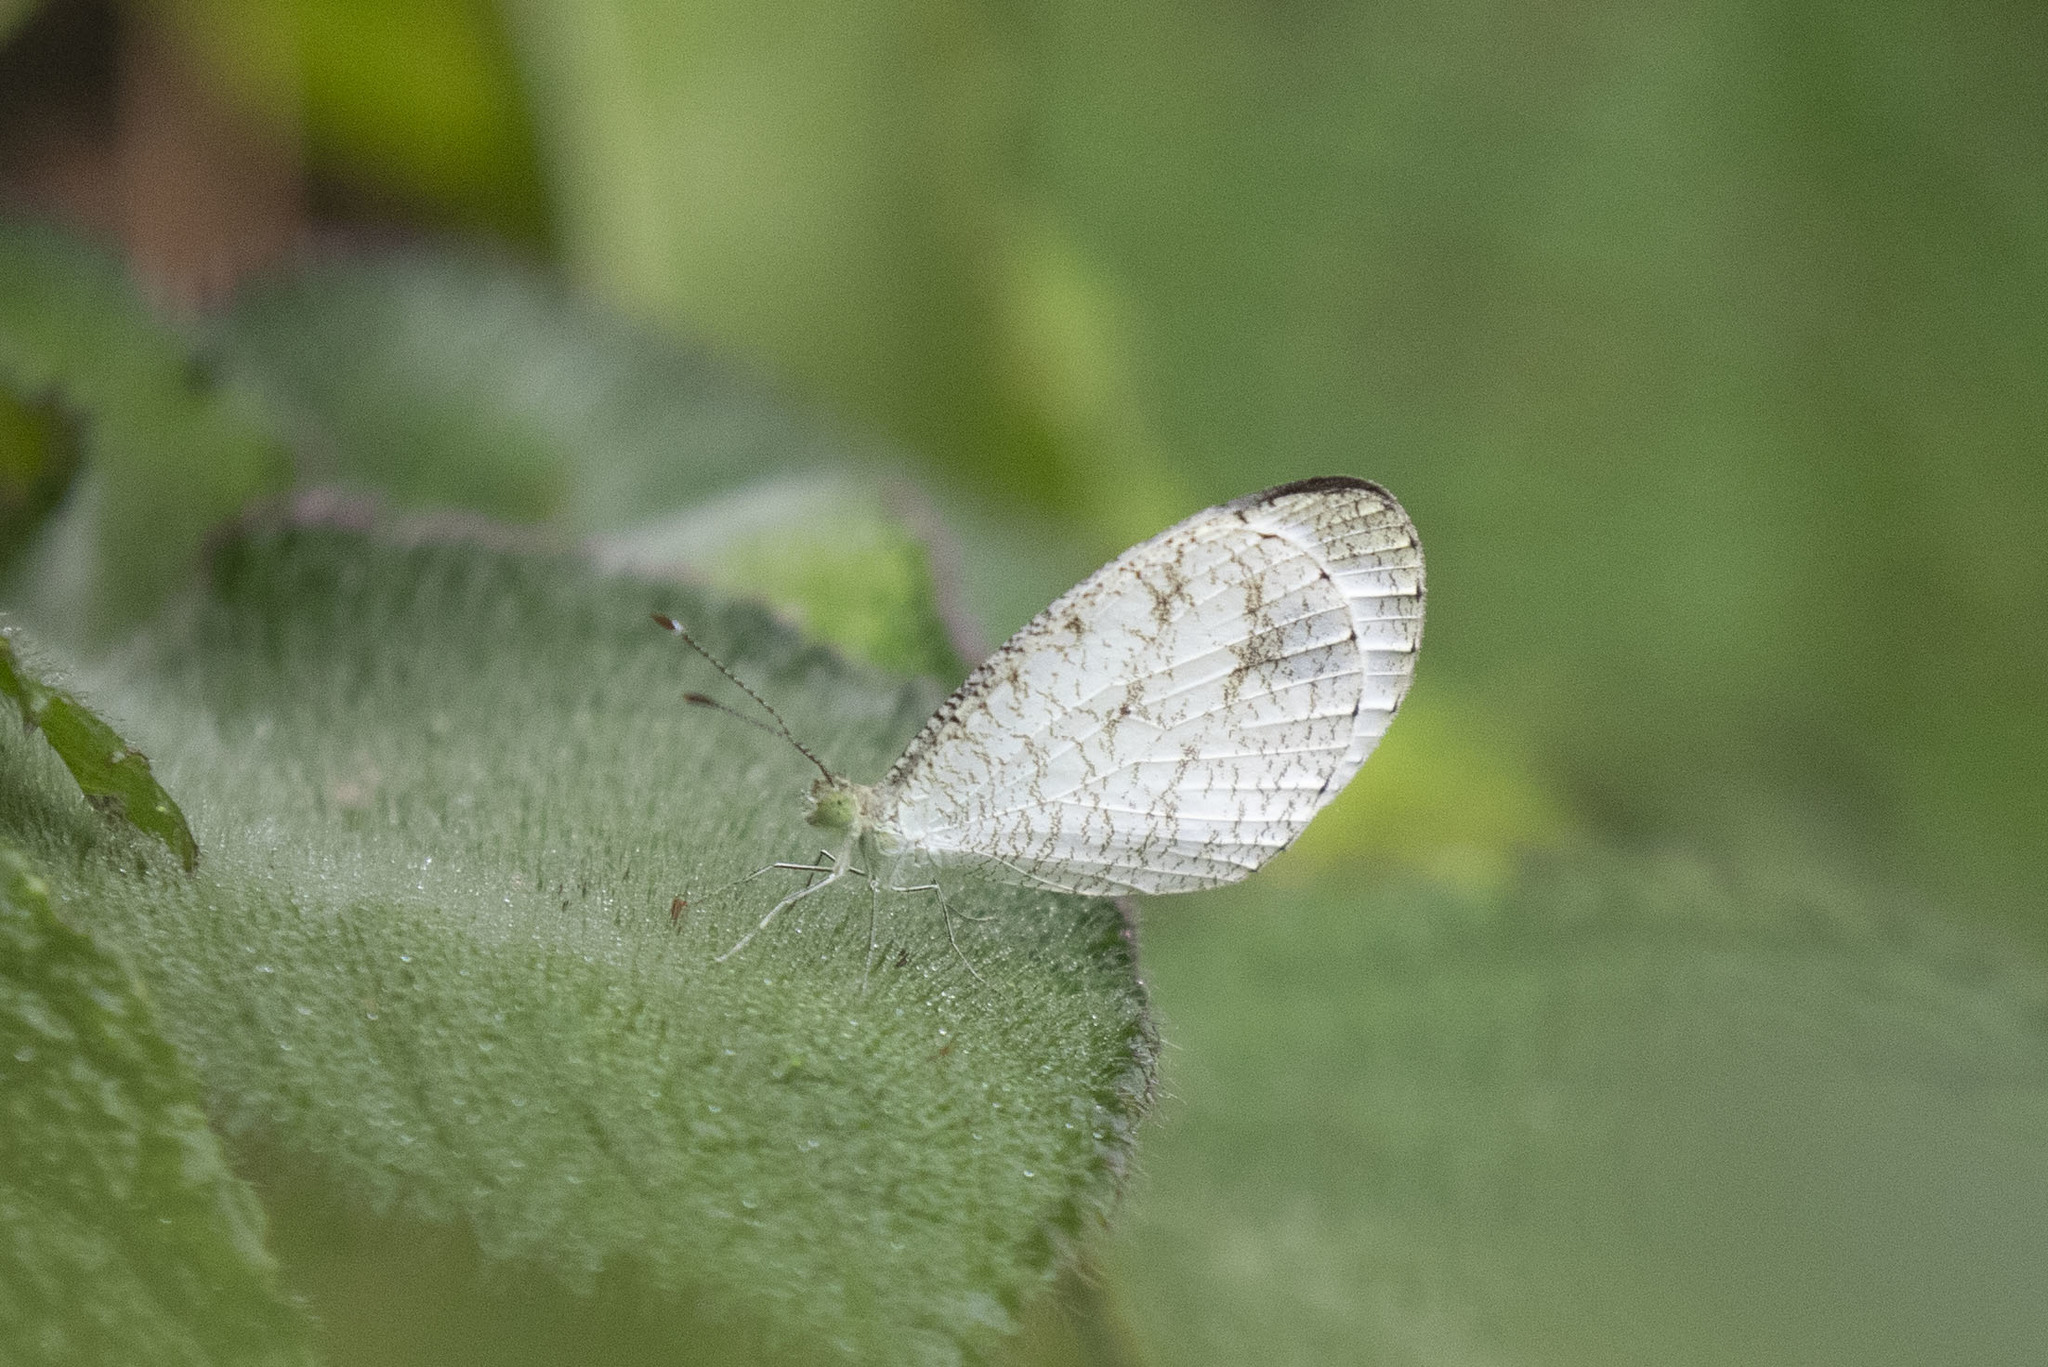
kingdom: Animalia
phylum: Arthropoda
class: Insecta
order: Lepidoptera
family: Pieridae
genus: Leptosia
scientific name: Leptosia nina
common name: Psyche
